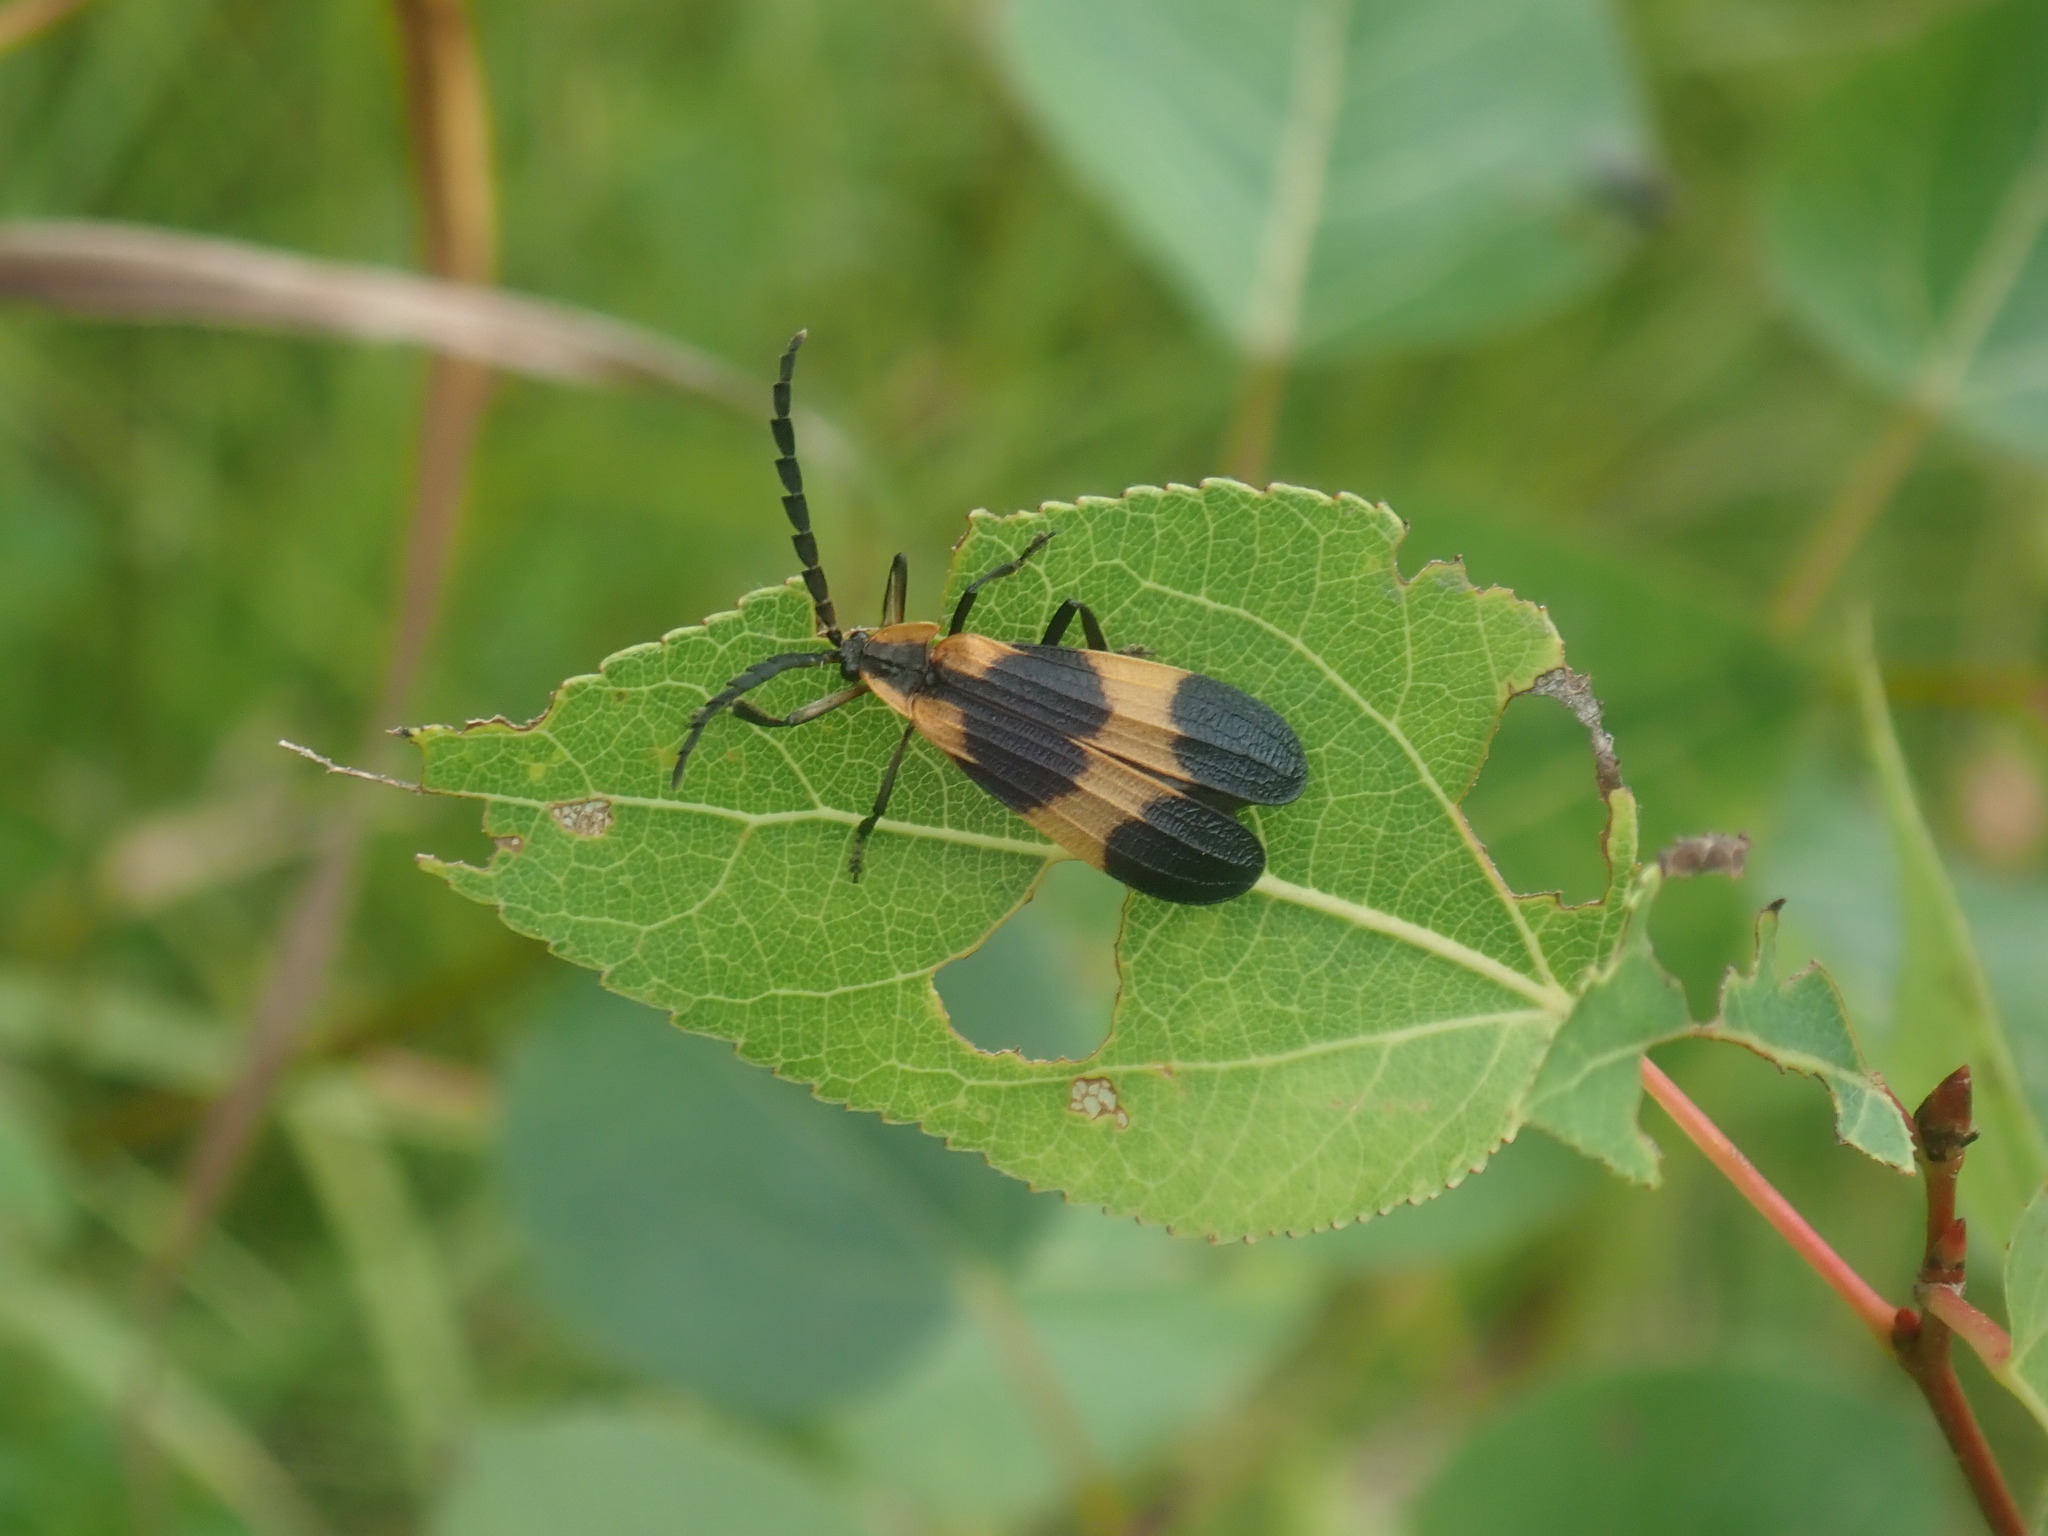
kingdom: Animalia
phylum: Arthropoda
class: Insecta
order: Coleoptera
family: Lycidae
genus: Calopteron
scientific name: Calopteron reticulatum
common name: Banded net-winged beetle
